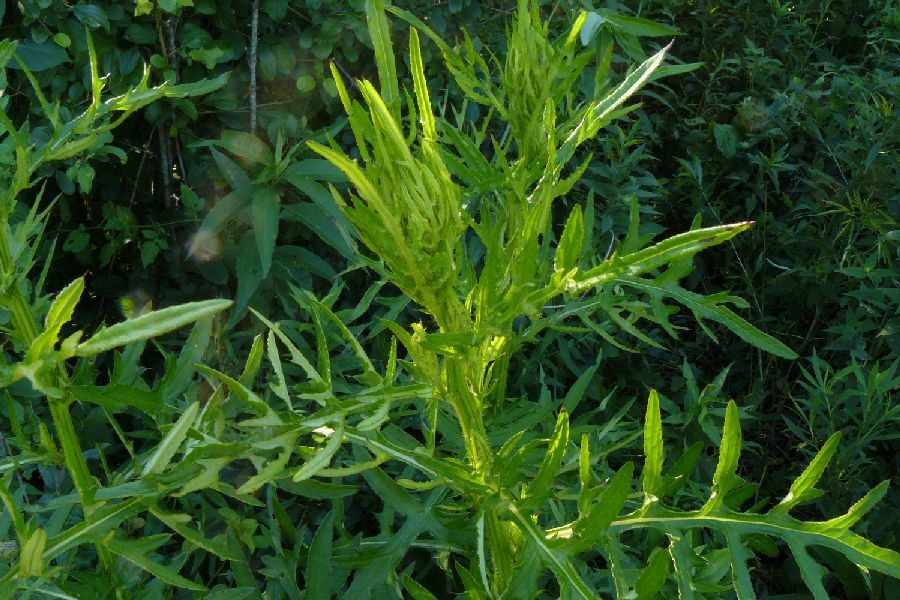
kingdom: Plantae
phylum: Tracheophyta
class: Magnoliopsida
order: Asterales
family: Asteraceae
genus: Cirsium
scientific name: Cirsium muticum
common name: Dunce-nettle
